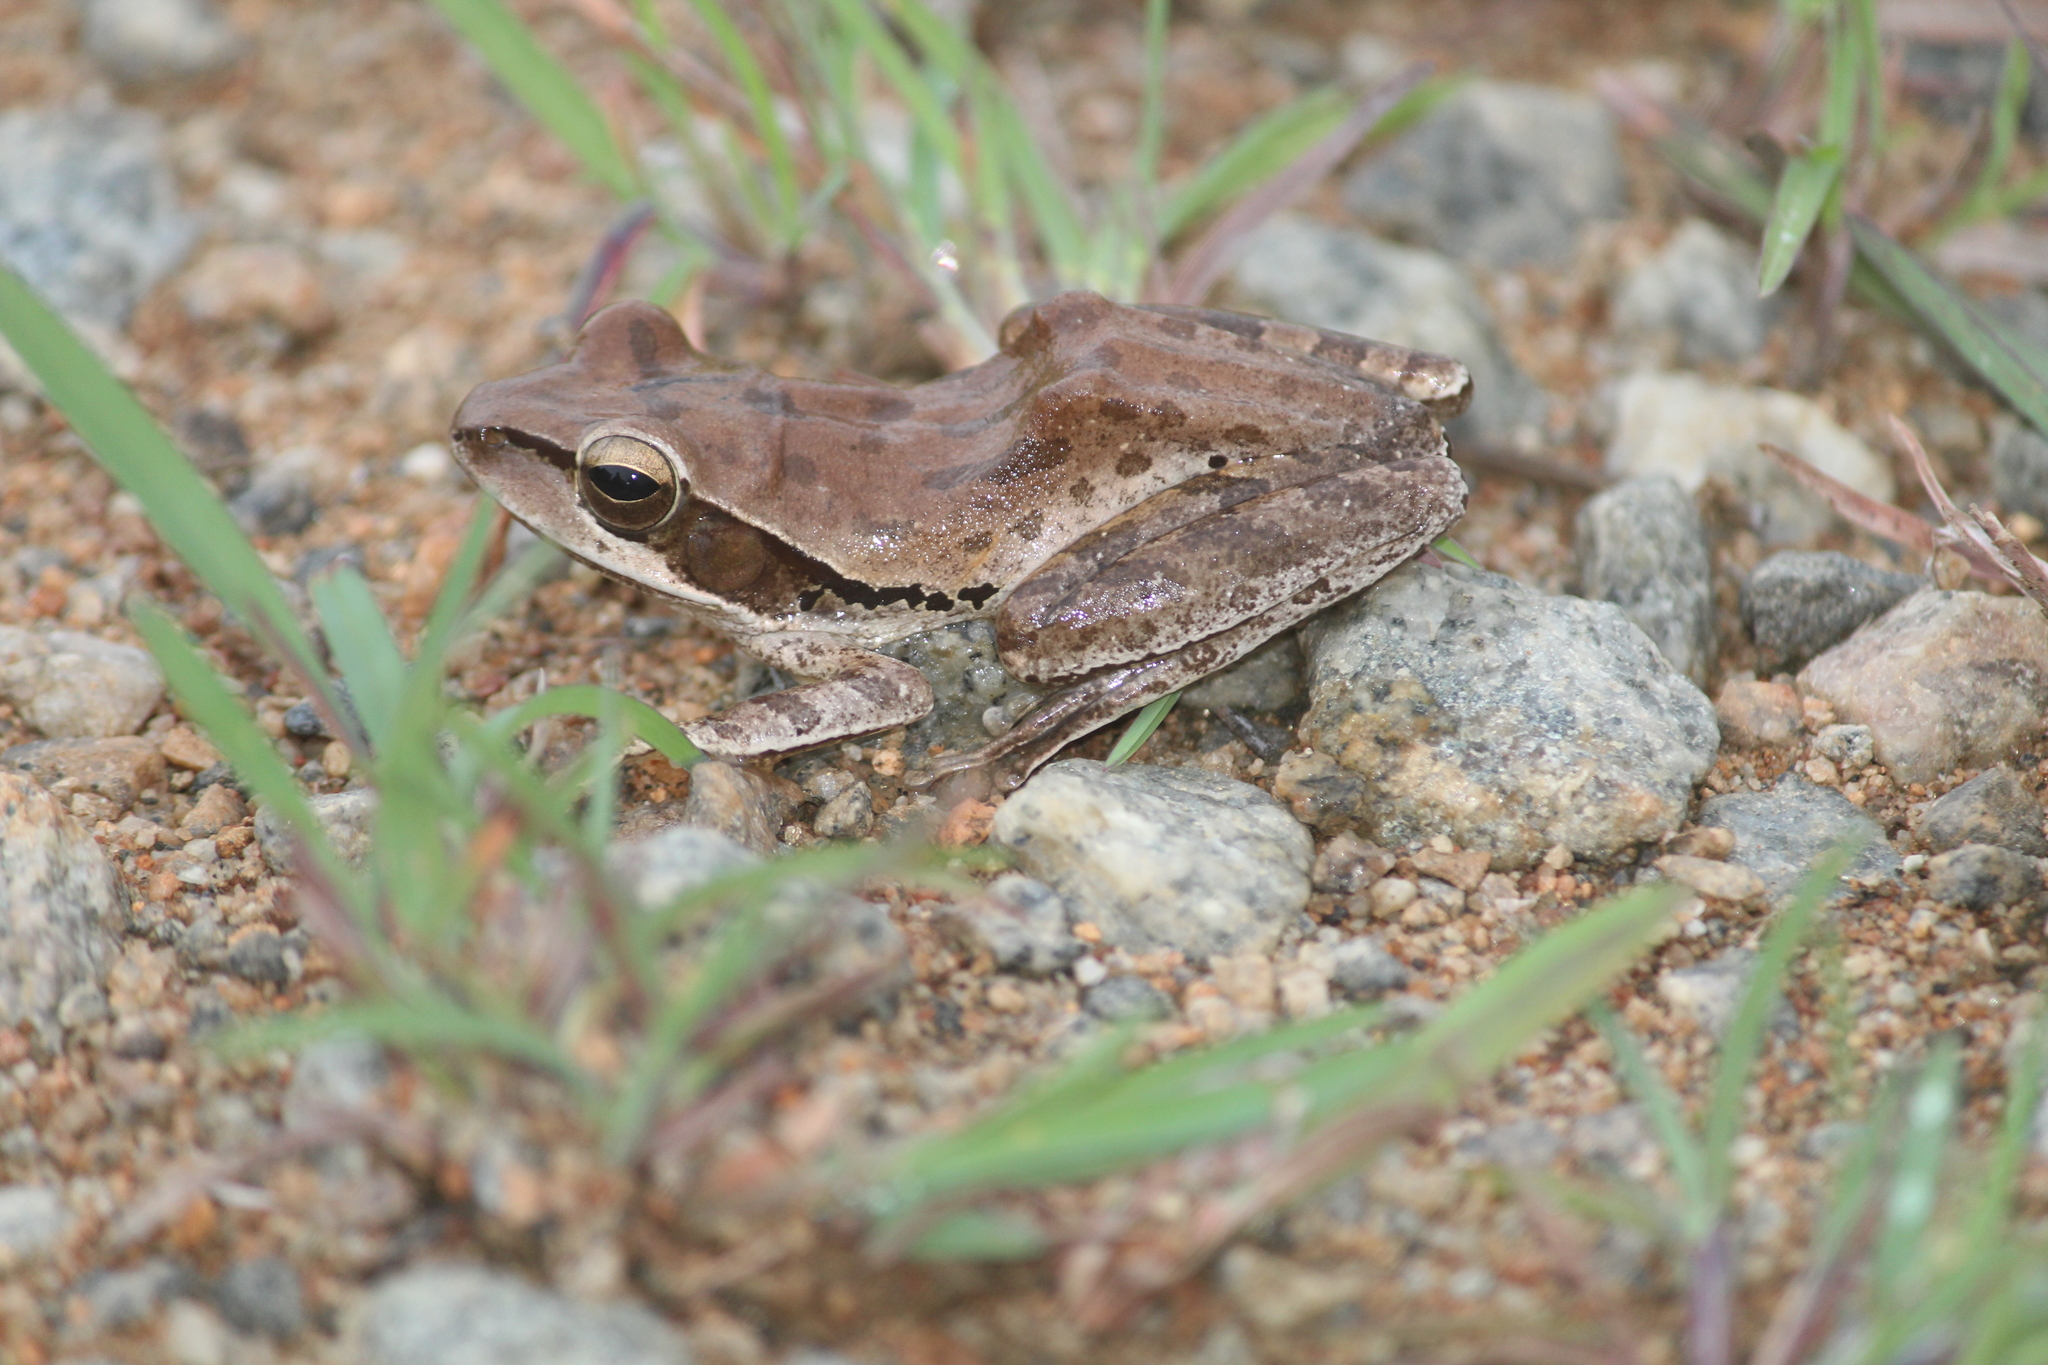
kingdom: Animalia
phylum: Chordata
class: Amphibia
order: Anura
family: Rhacophoridae
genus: Polypedates
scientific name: Polypedates maculatus
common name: Himalayan tree frog
